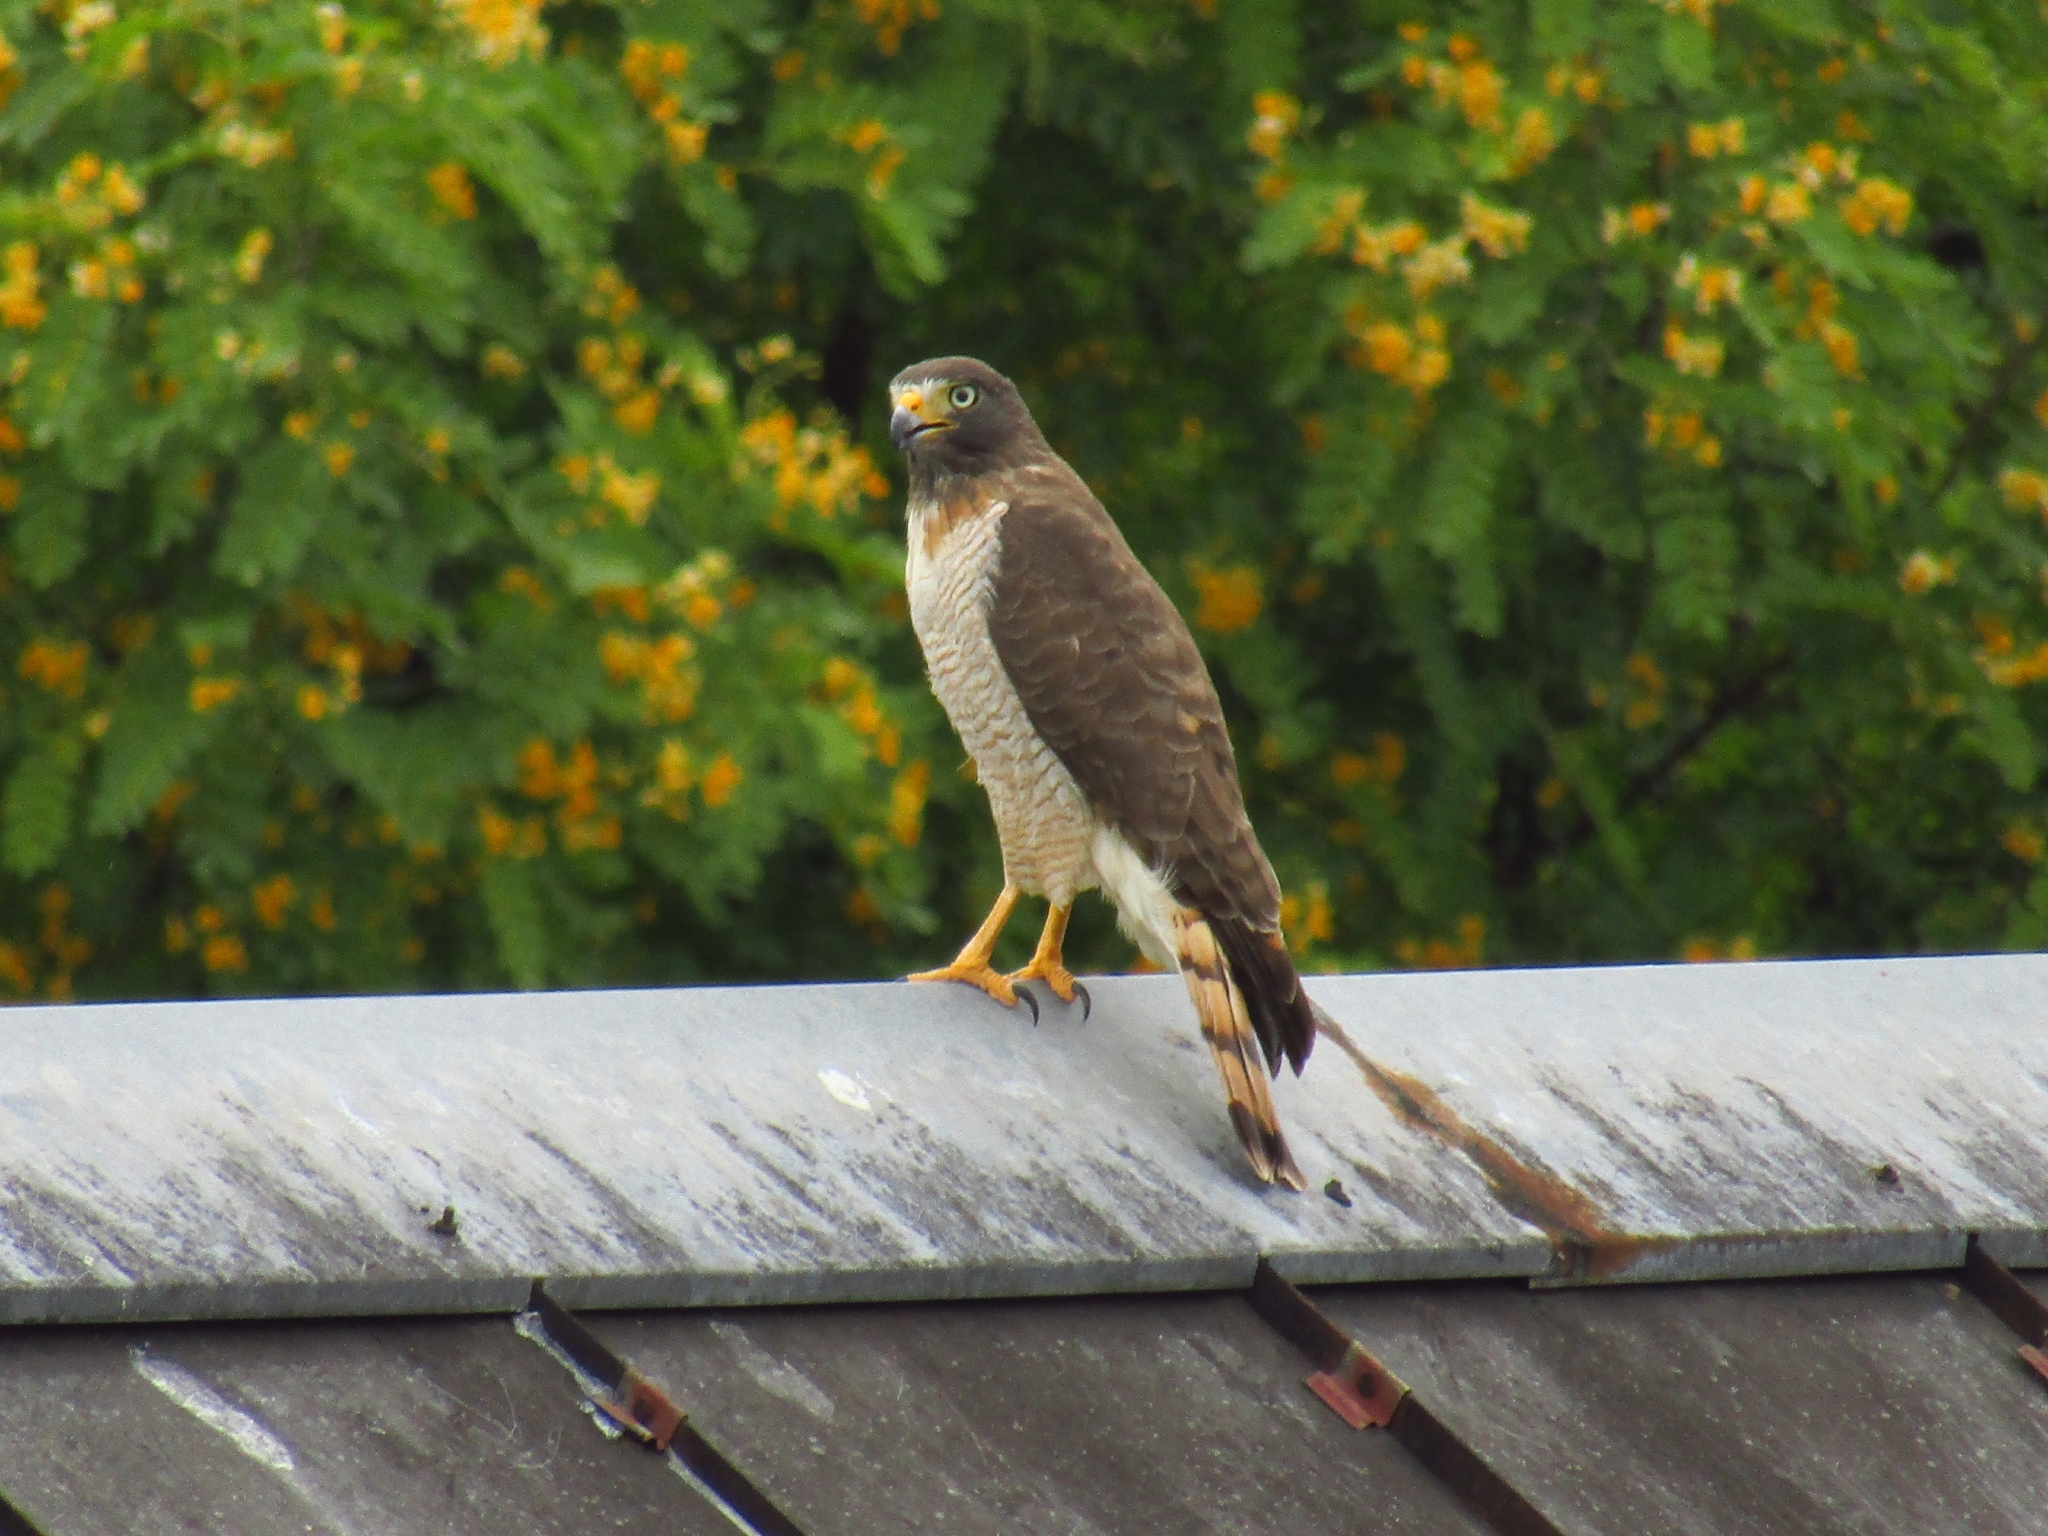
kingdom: Animalia
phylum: Chordata
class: Aves
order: Accipitriformes
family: Accipitridae
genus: Rupornis
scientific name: Rupornis magnirostris
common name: Roadside hawk
